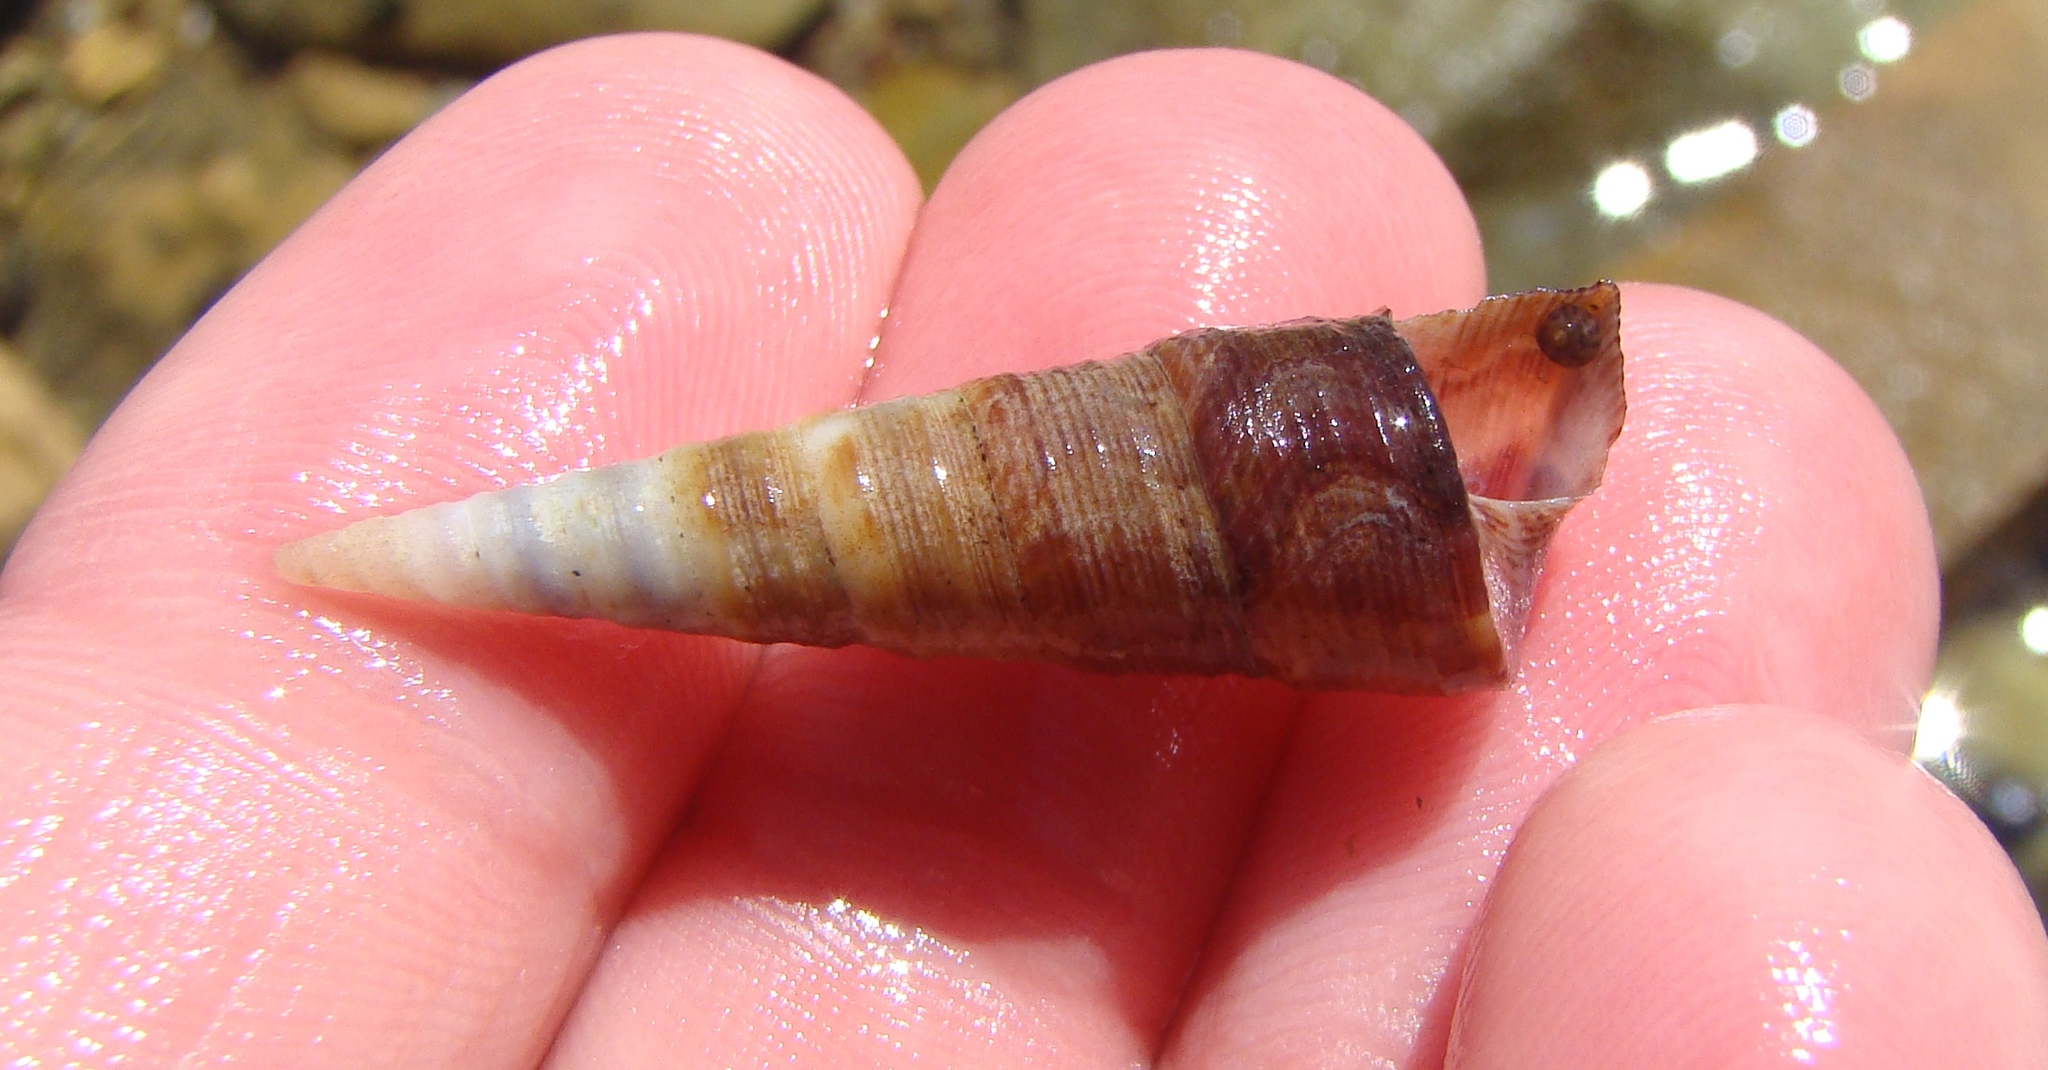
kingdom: Animalia
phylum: Mollusca
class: Gastropoda
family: Turritellidae
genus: Maoricolpus
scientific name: Maoricolpus roseus
